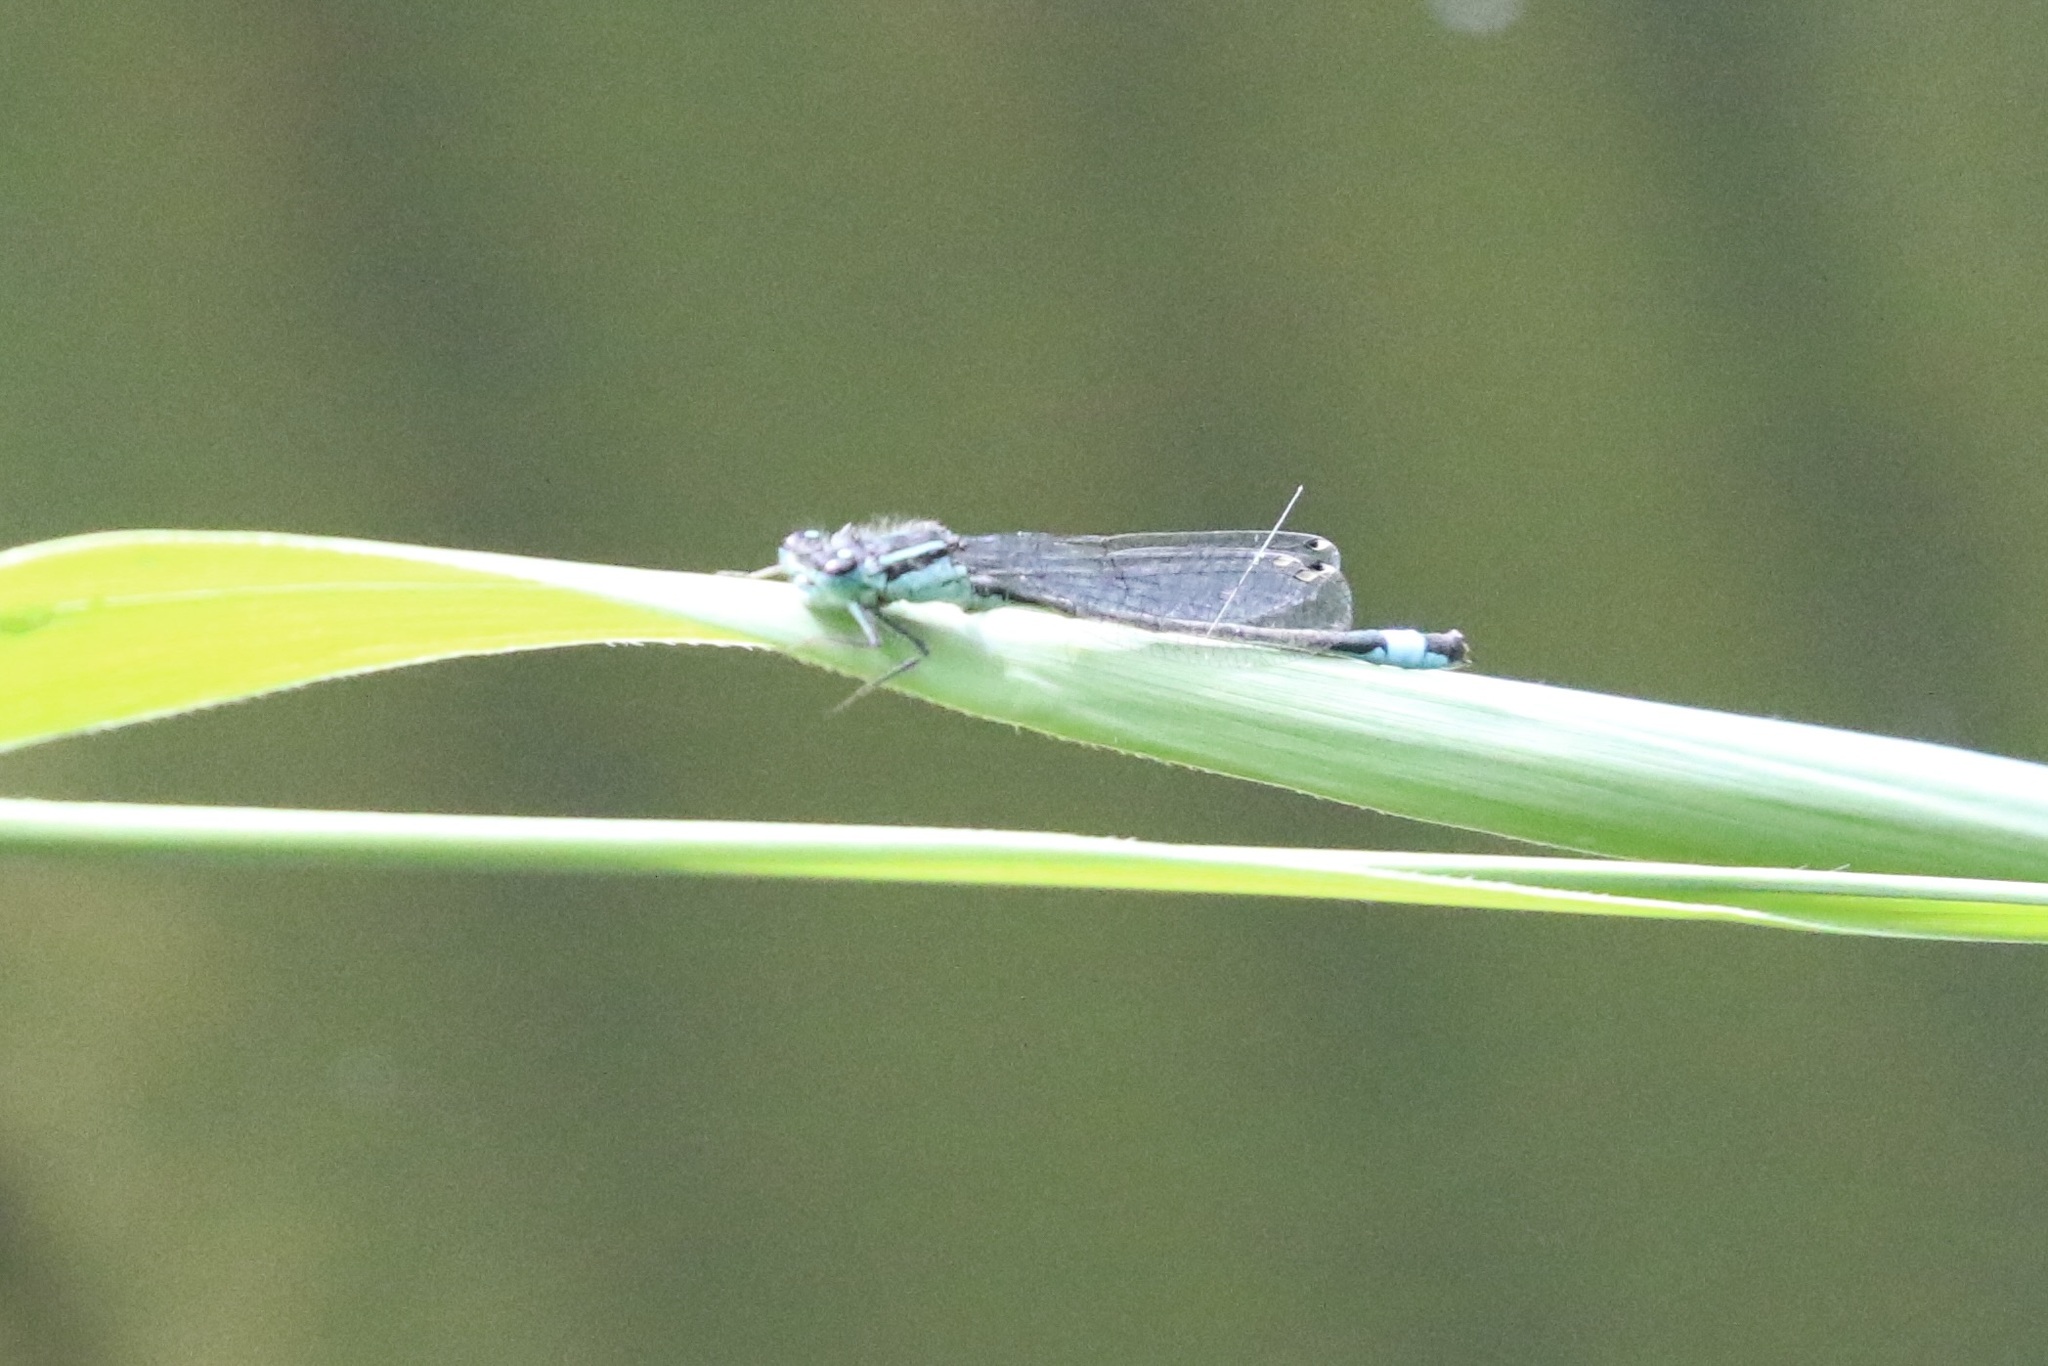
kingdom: Animalia
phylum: Arthropoda
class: Insecta
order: Odonata
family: Coenagrionidae
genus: Ischnura
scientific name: Ischnura elegans
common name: Blue-tailed damselfly
